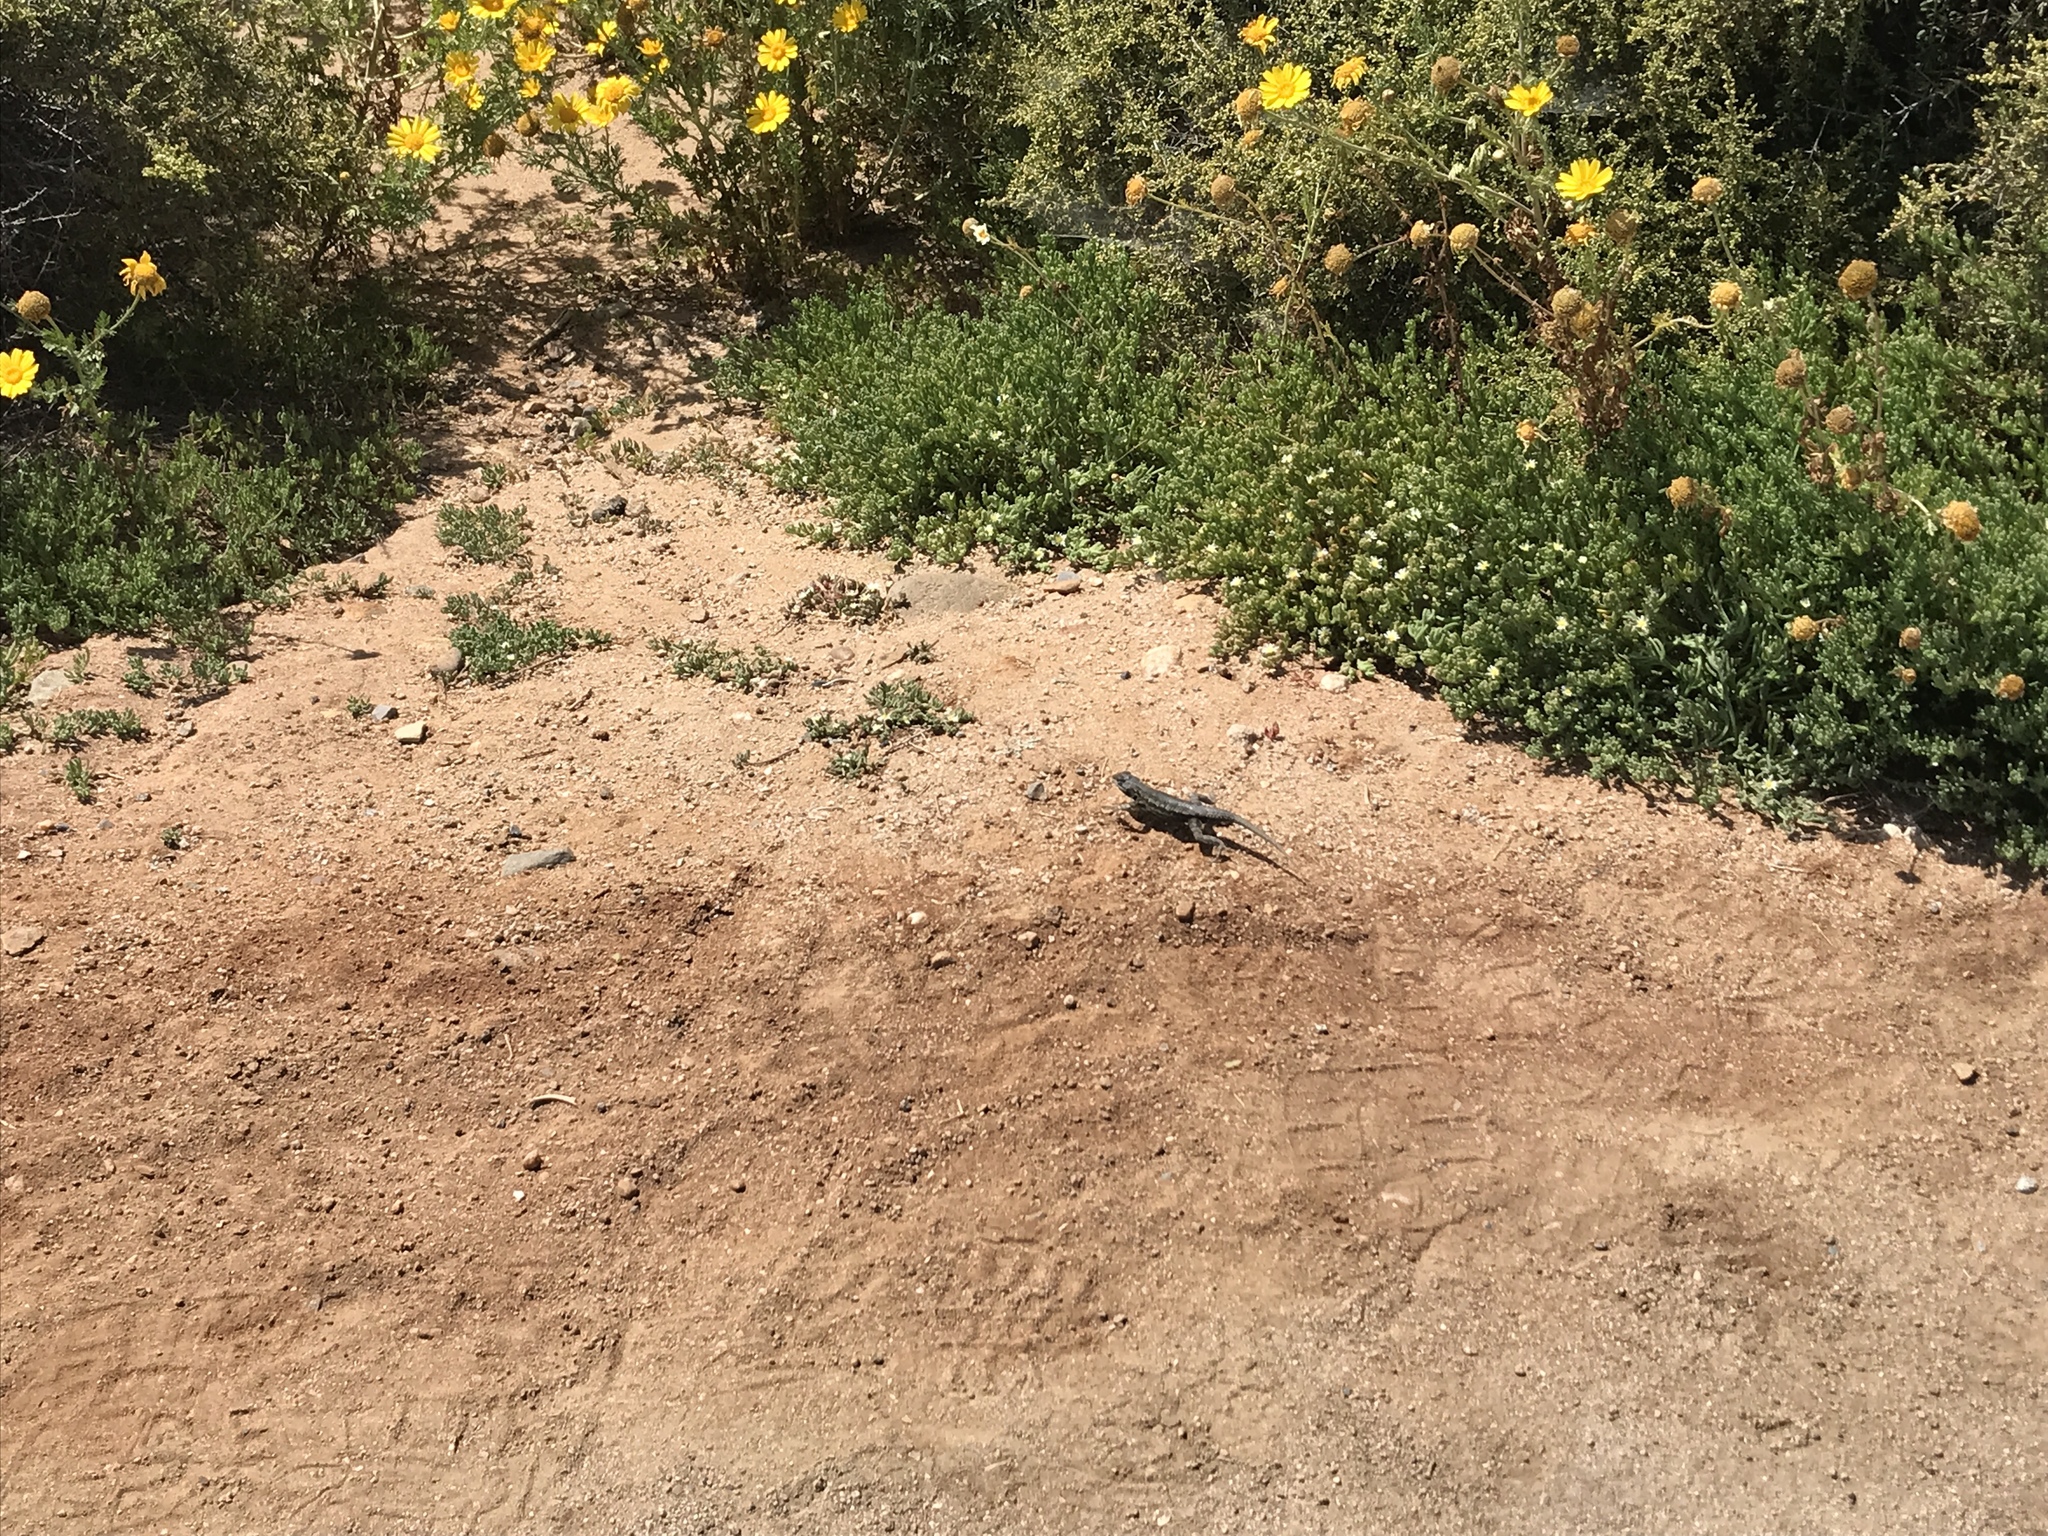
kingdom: Animalia
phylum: Chordata
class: Squamata
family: Phrynosomatidae
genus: Sceloporus
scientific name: Sceloporus occidentalis
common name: Western fence lizard
